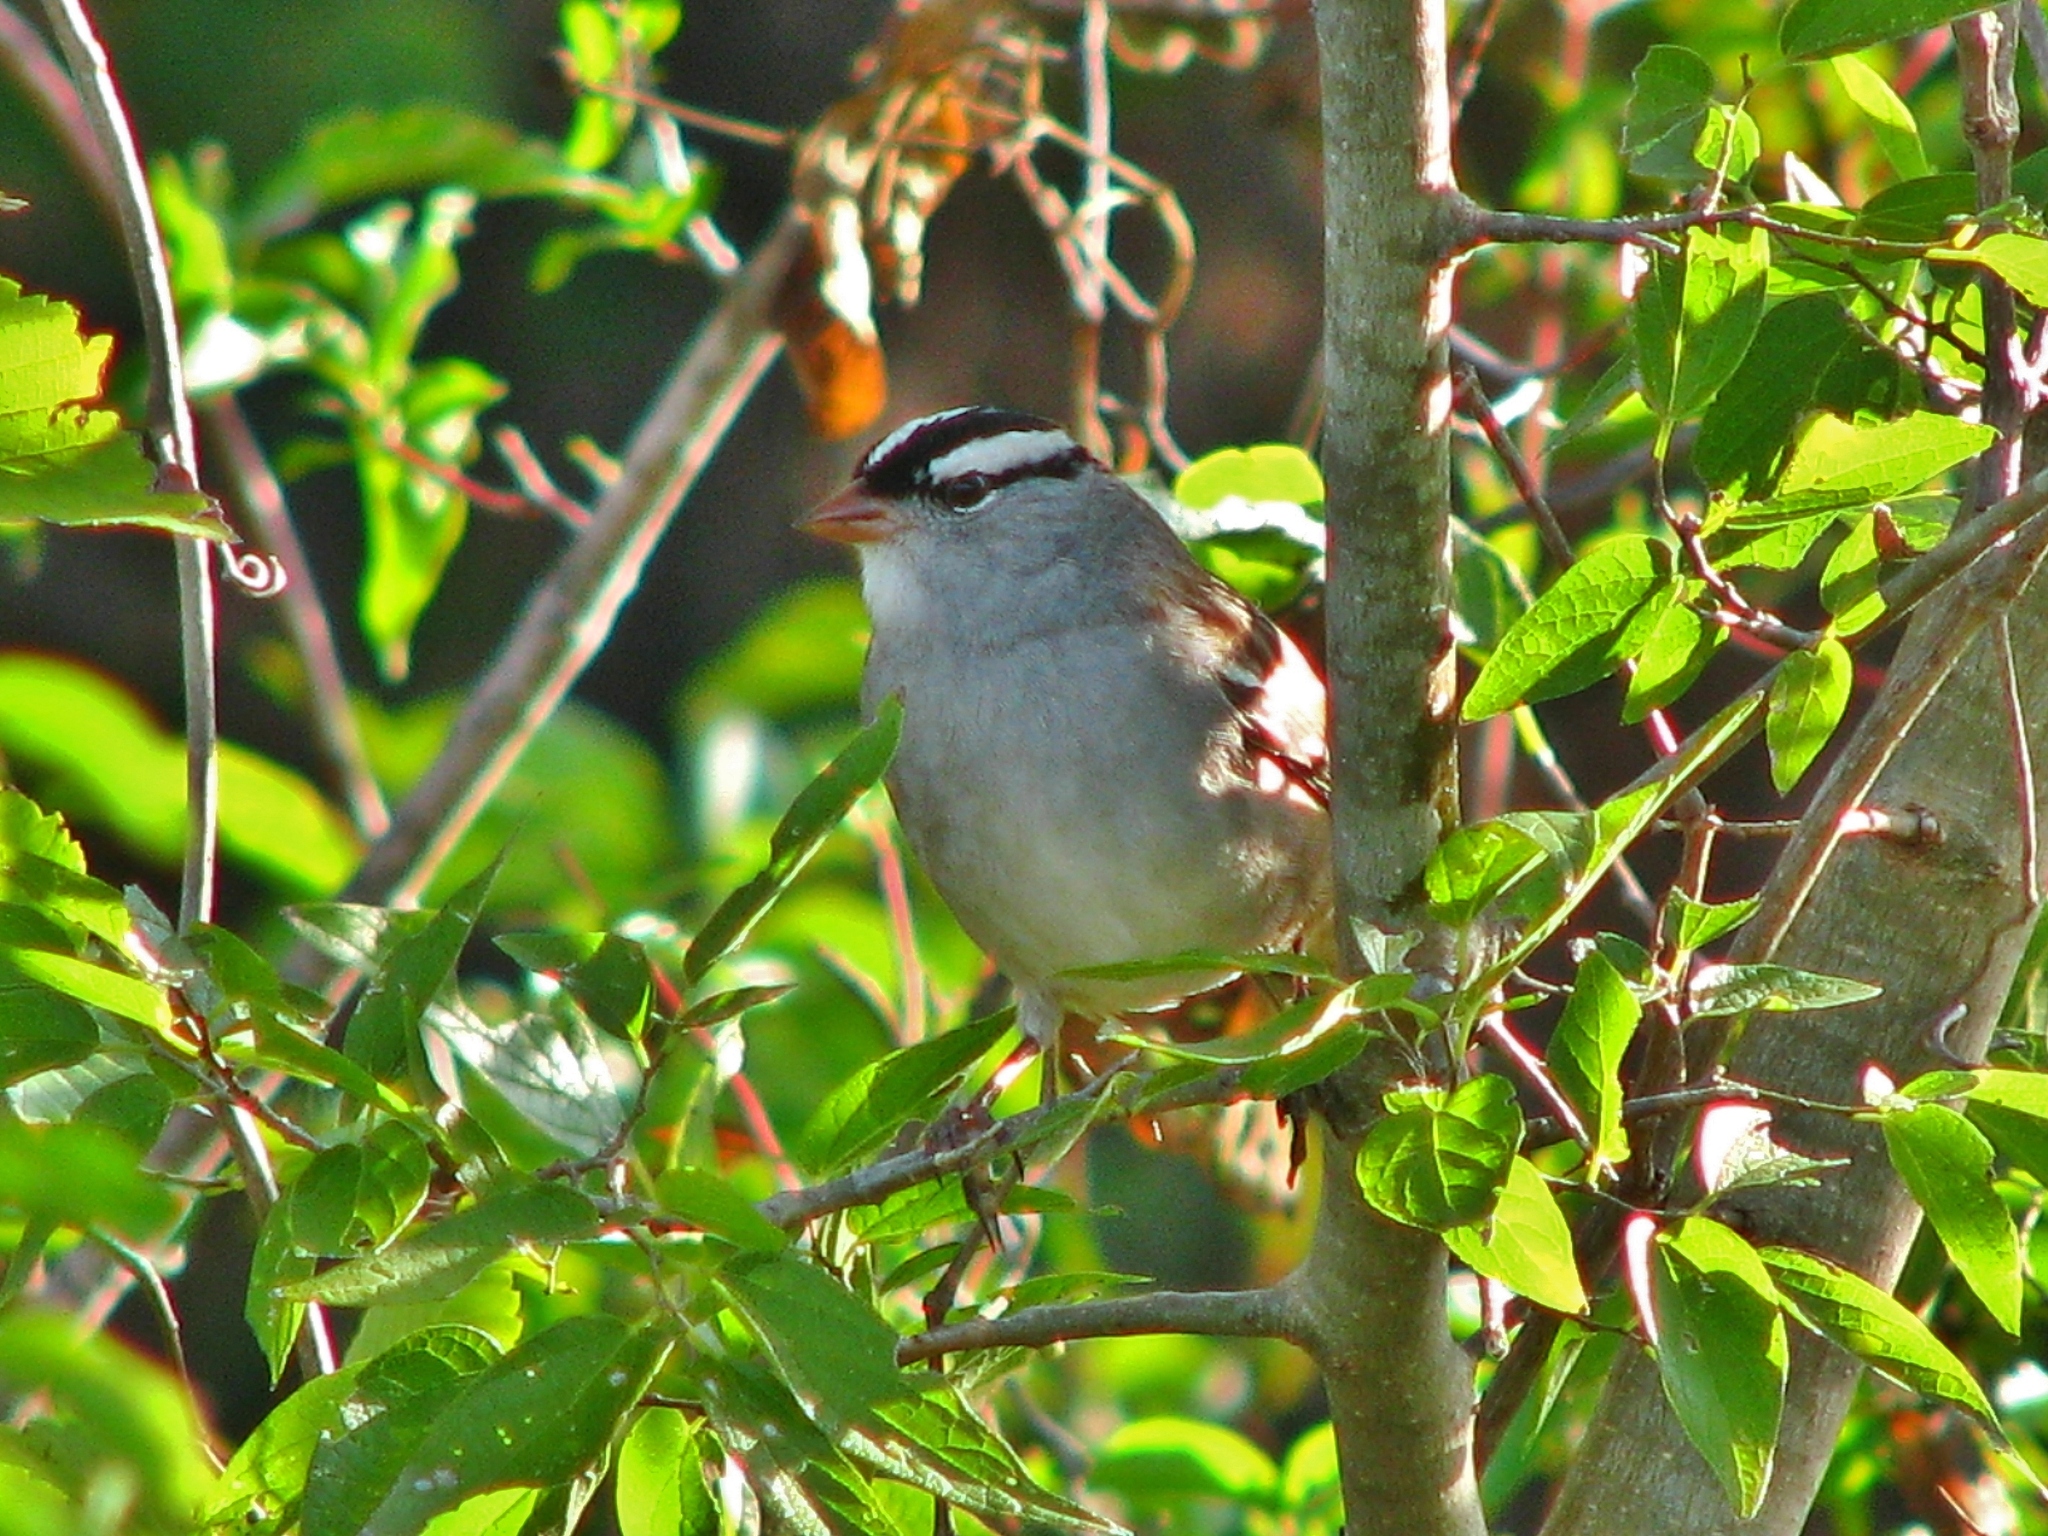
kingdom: Animalia
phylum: Chordata
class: Aves
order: Passeriformes
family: Passerellidae
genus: Zonotrichia
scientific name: Zonotrichia leucophrys
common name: White-crowned sparrow
